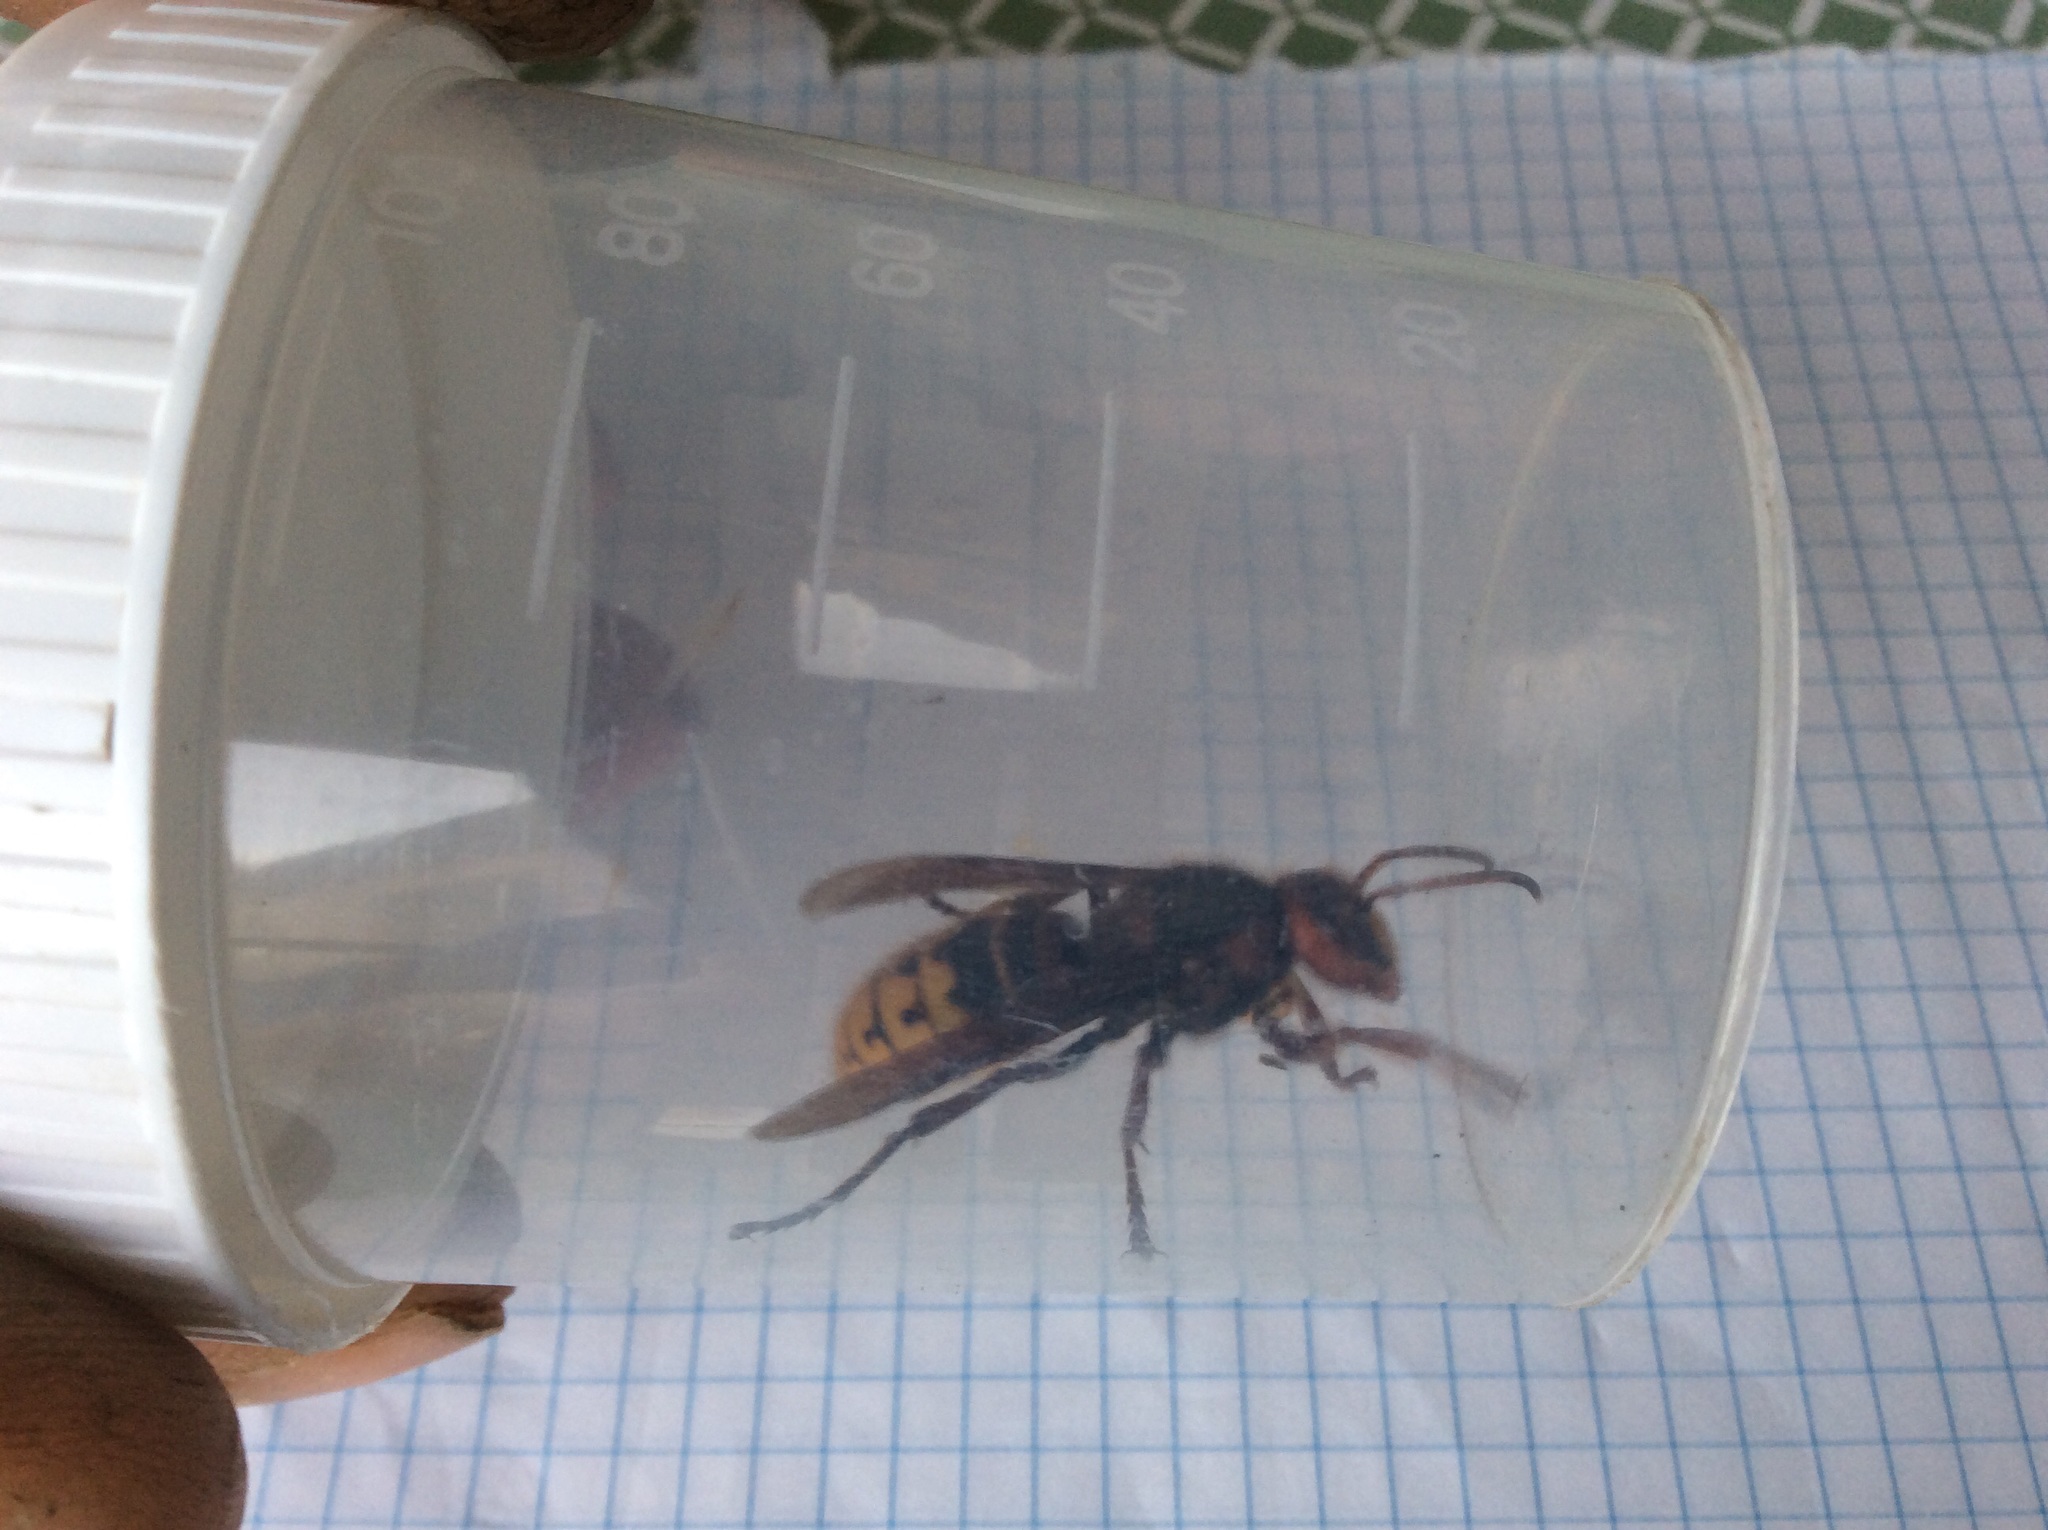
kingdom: Animalia
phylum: Arthropoda
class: Insecta
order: Hymenoptera
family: Vespidae
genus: Vespa
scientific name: Vespa crabro
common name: Hornet
